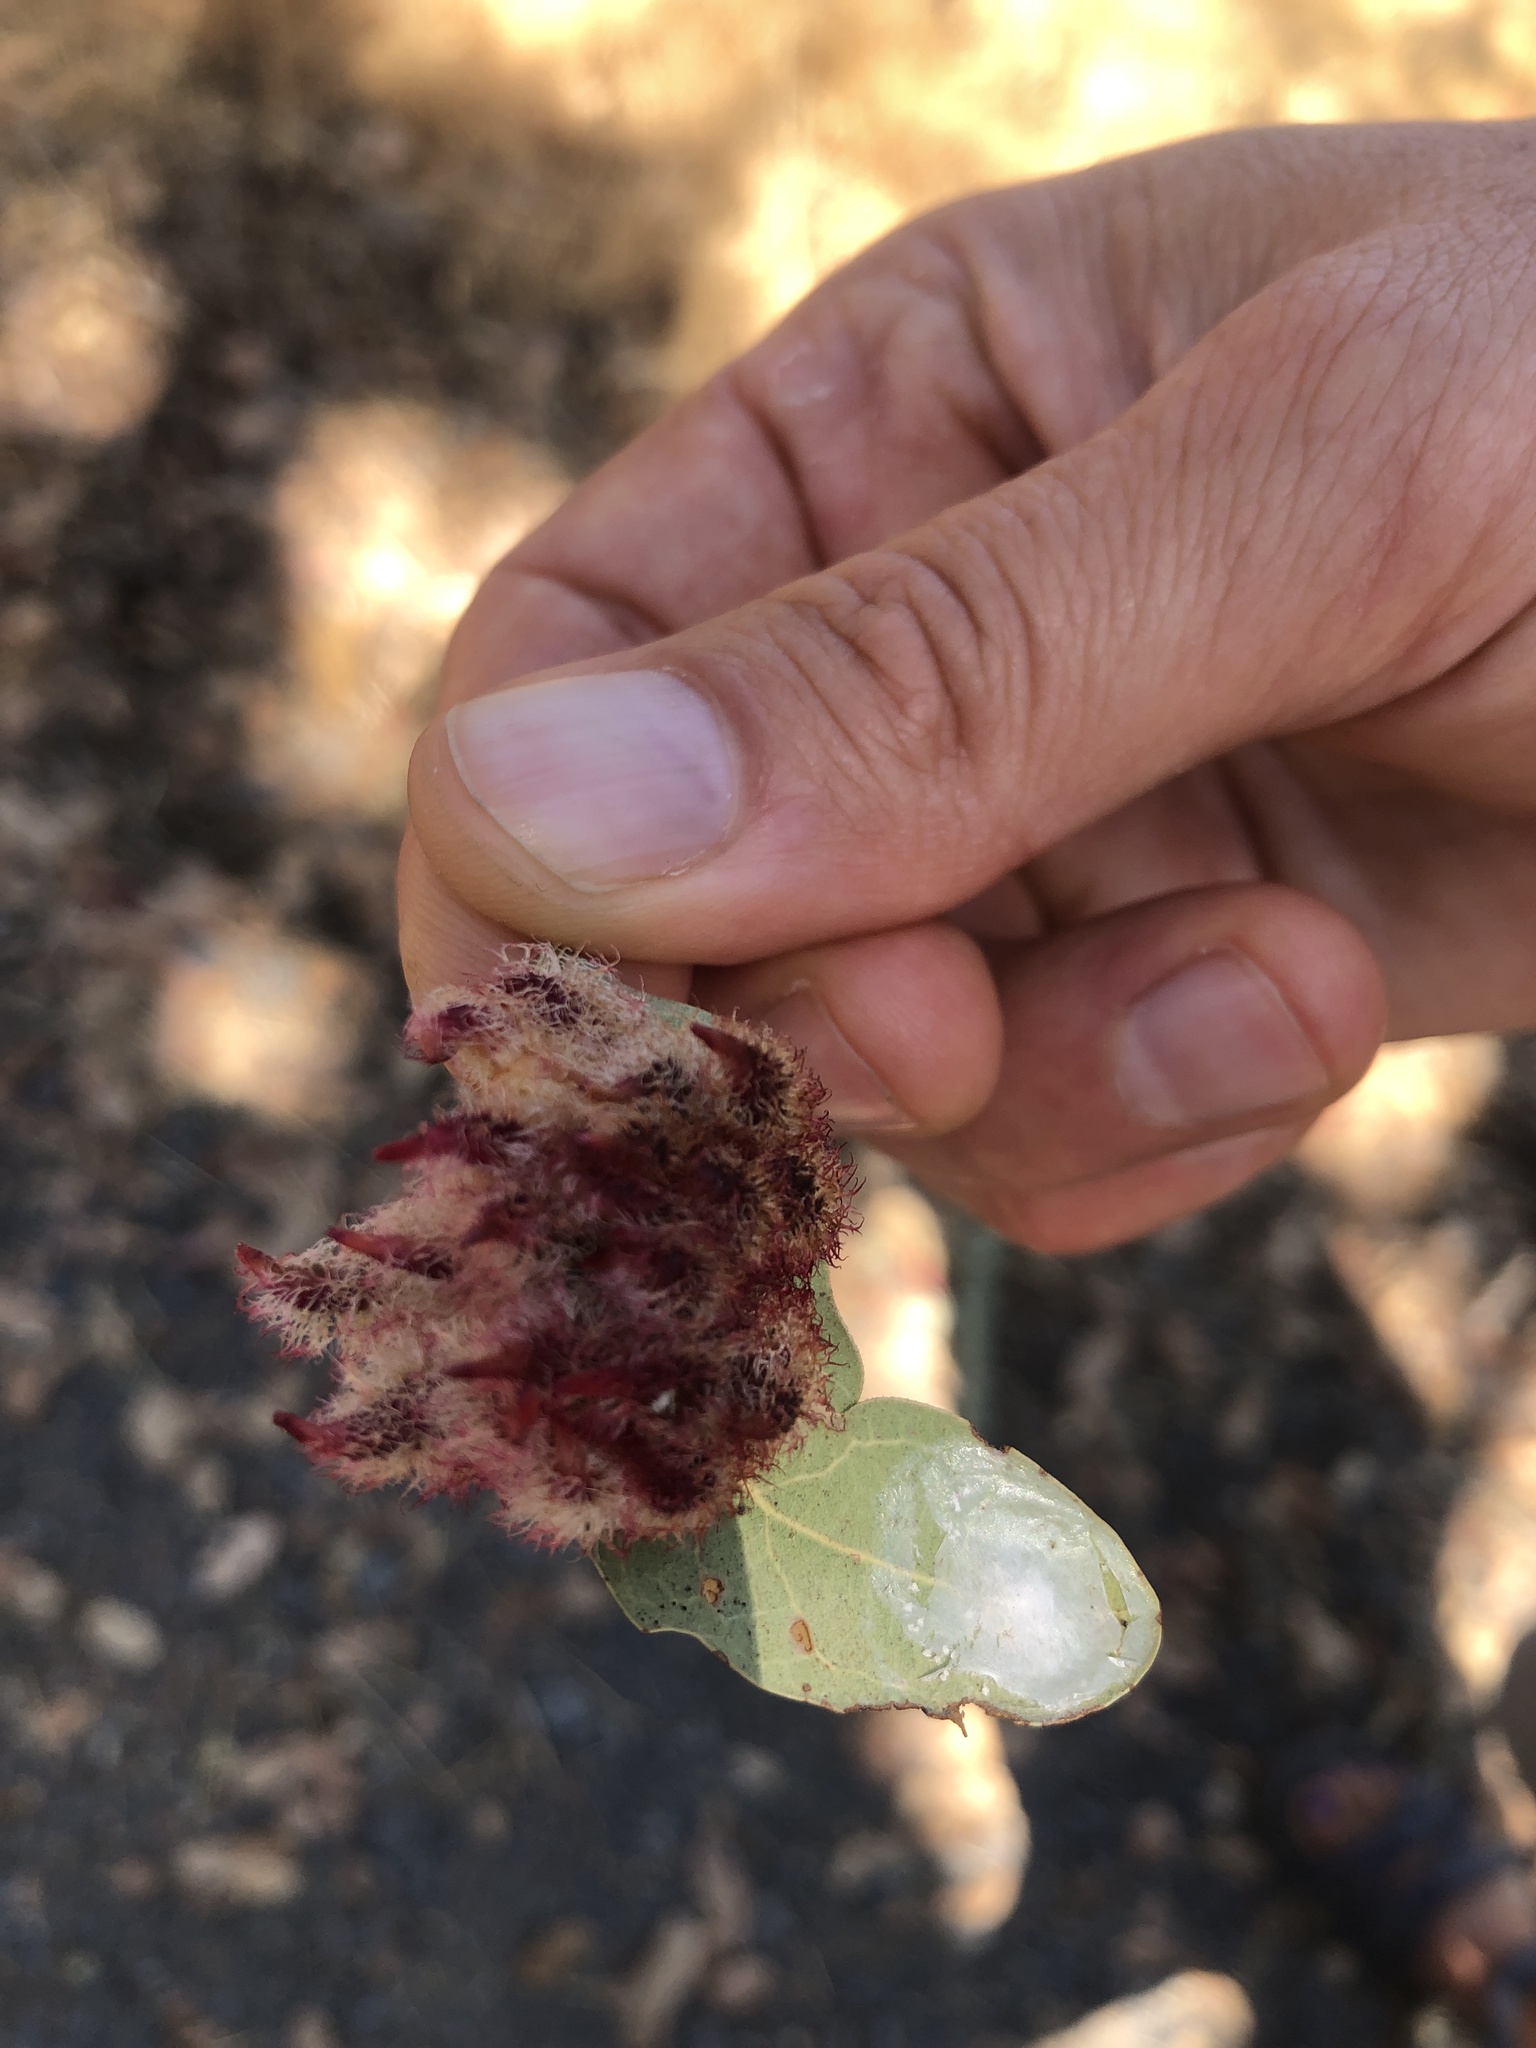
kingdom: Animalia
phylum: Arthropoda
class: Insecta
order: Hymenoptera
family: Cynipidae
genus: Andricus
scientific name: Andricus
